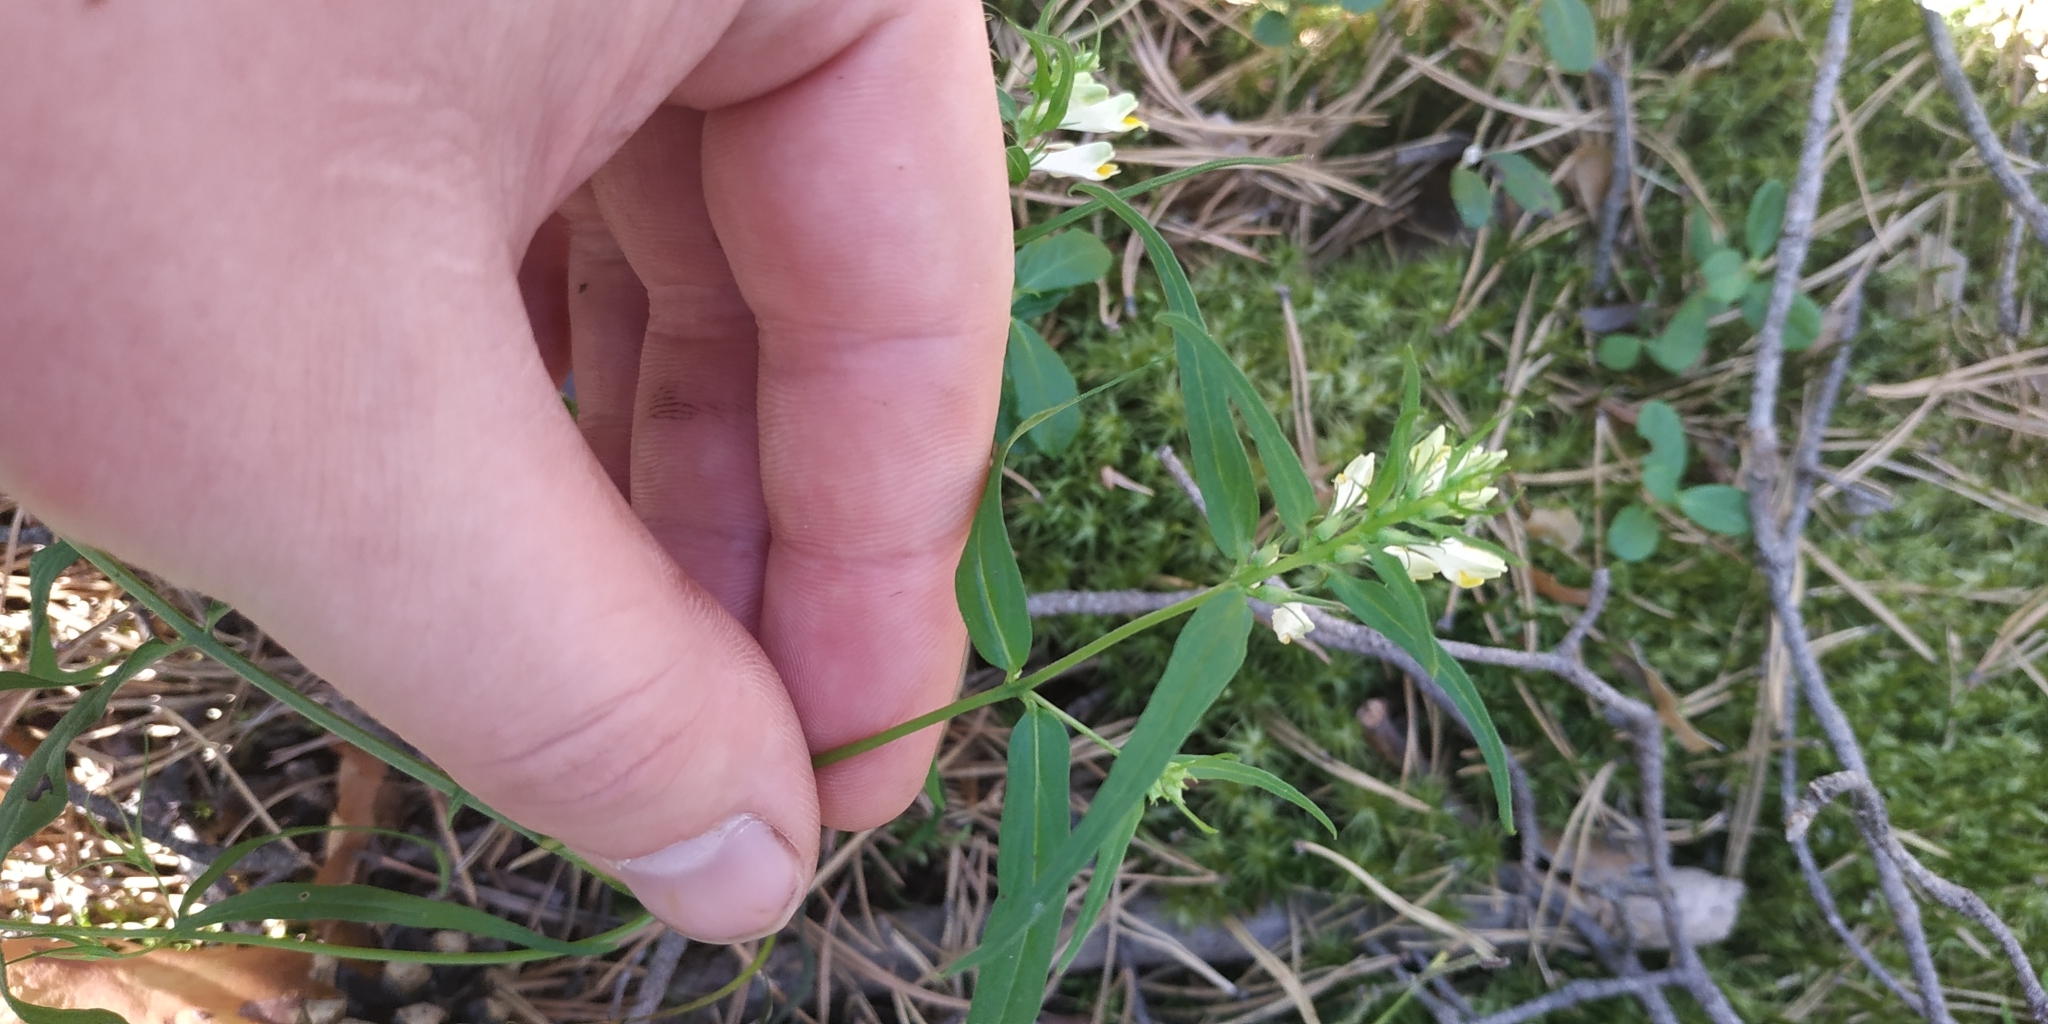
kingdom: Plantae
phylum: Tracheophyta
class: Magnoliopsida
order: Lamiales
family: Orobanchaceae
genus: Melampyrum
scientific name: Melampyrum pratense
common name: Common cow-wheat
